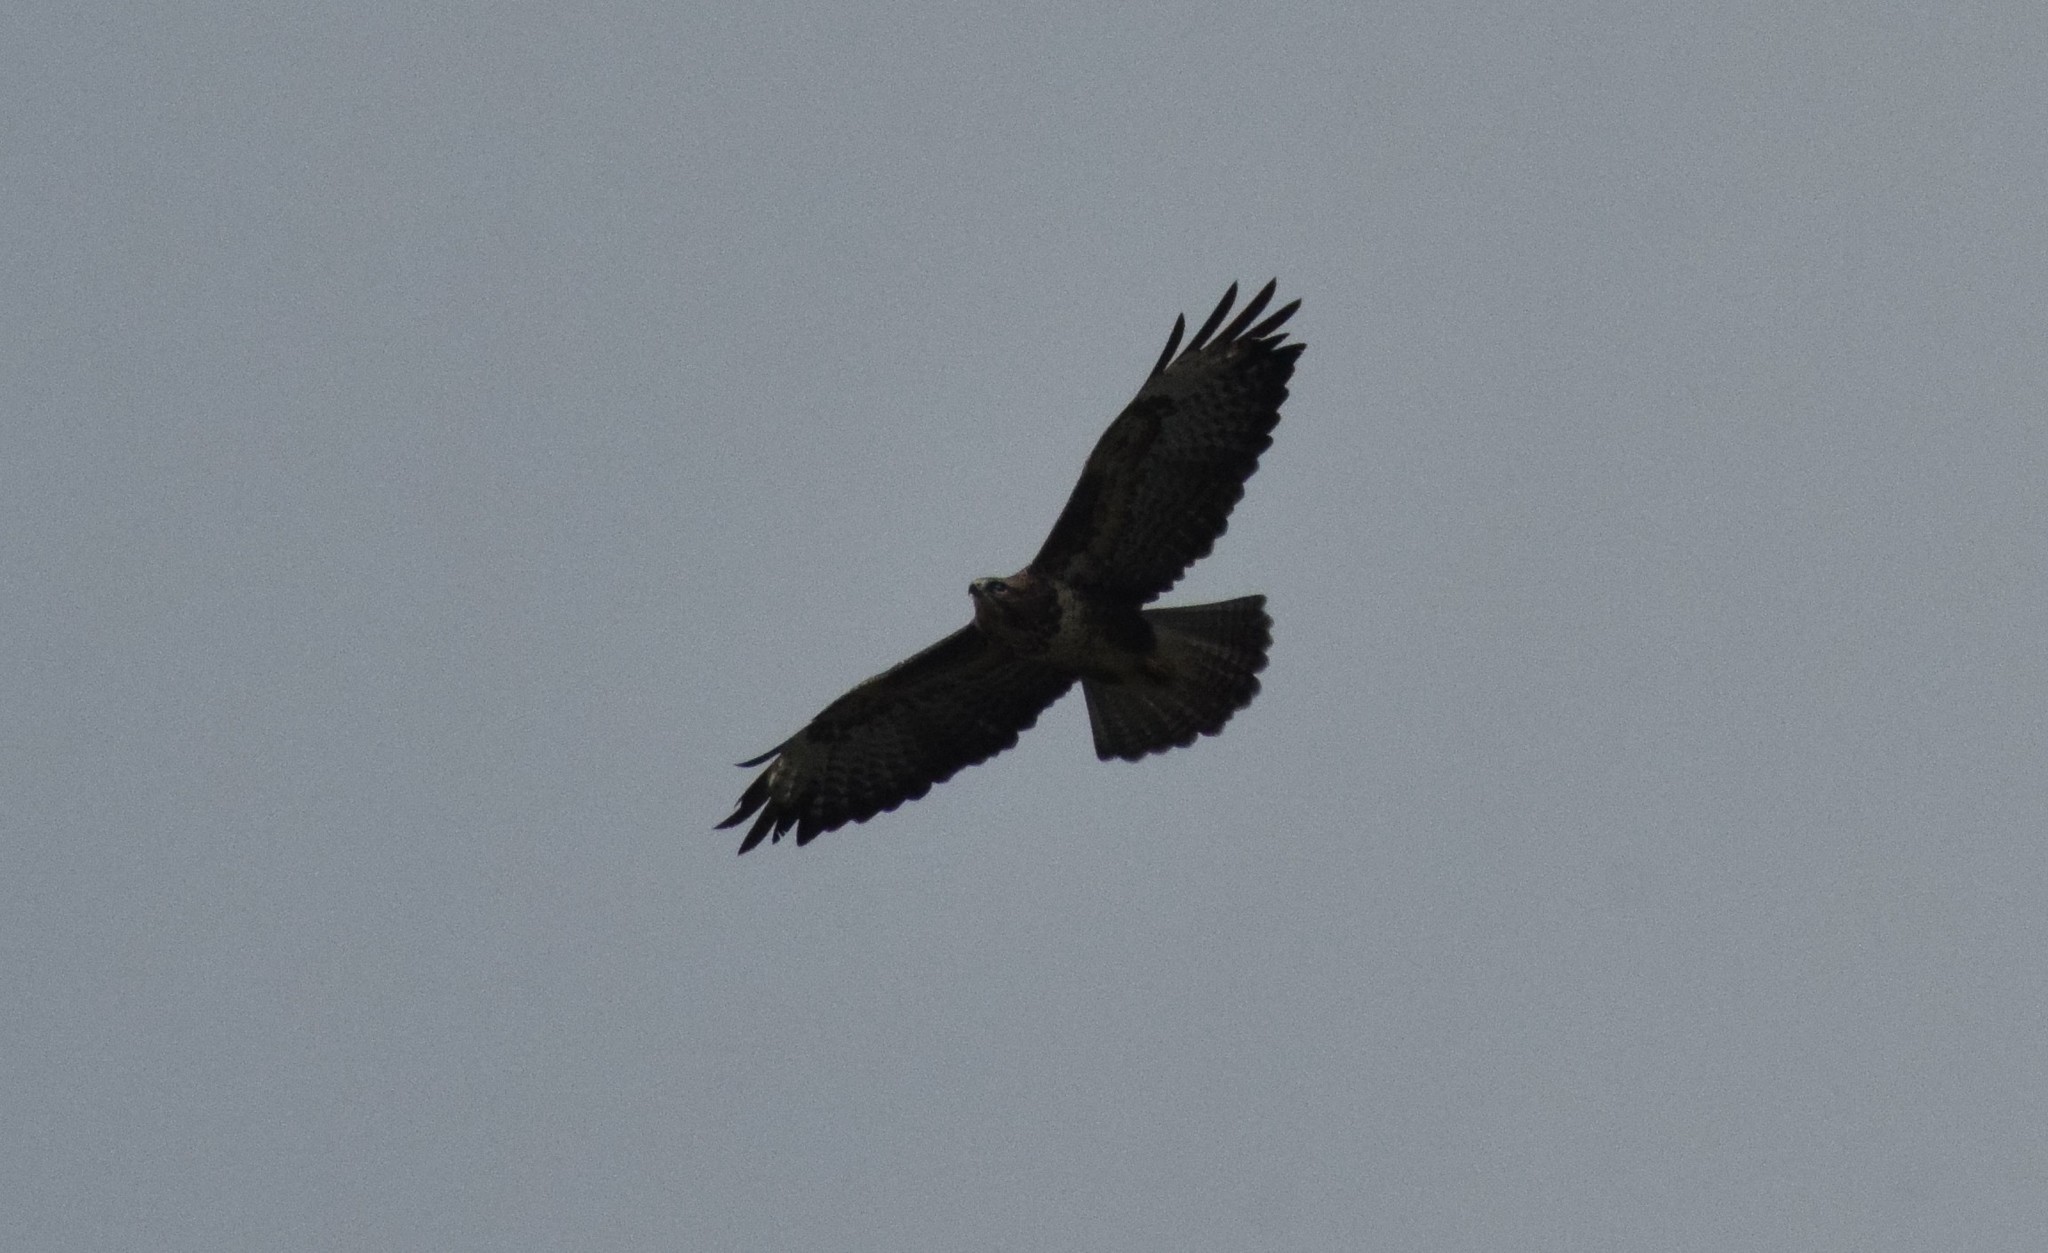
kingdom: Animalia
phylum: Chordata
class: Aves
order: Accipitriformes
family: Accipitridae
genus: Buteo
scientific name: Buteo buteo
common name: Common buzzard
